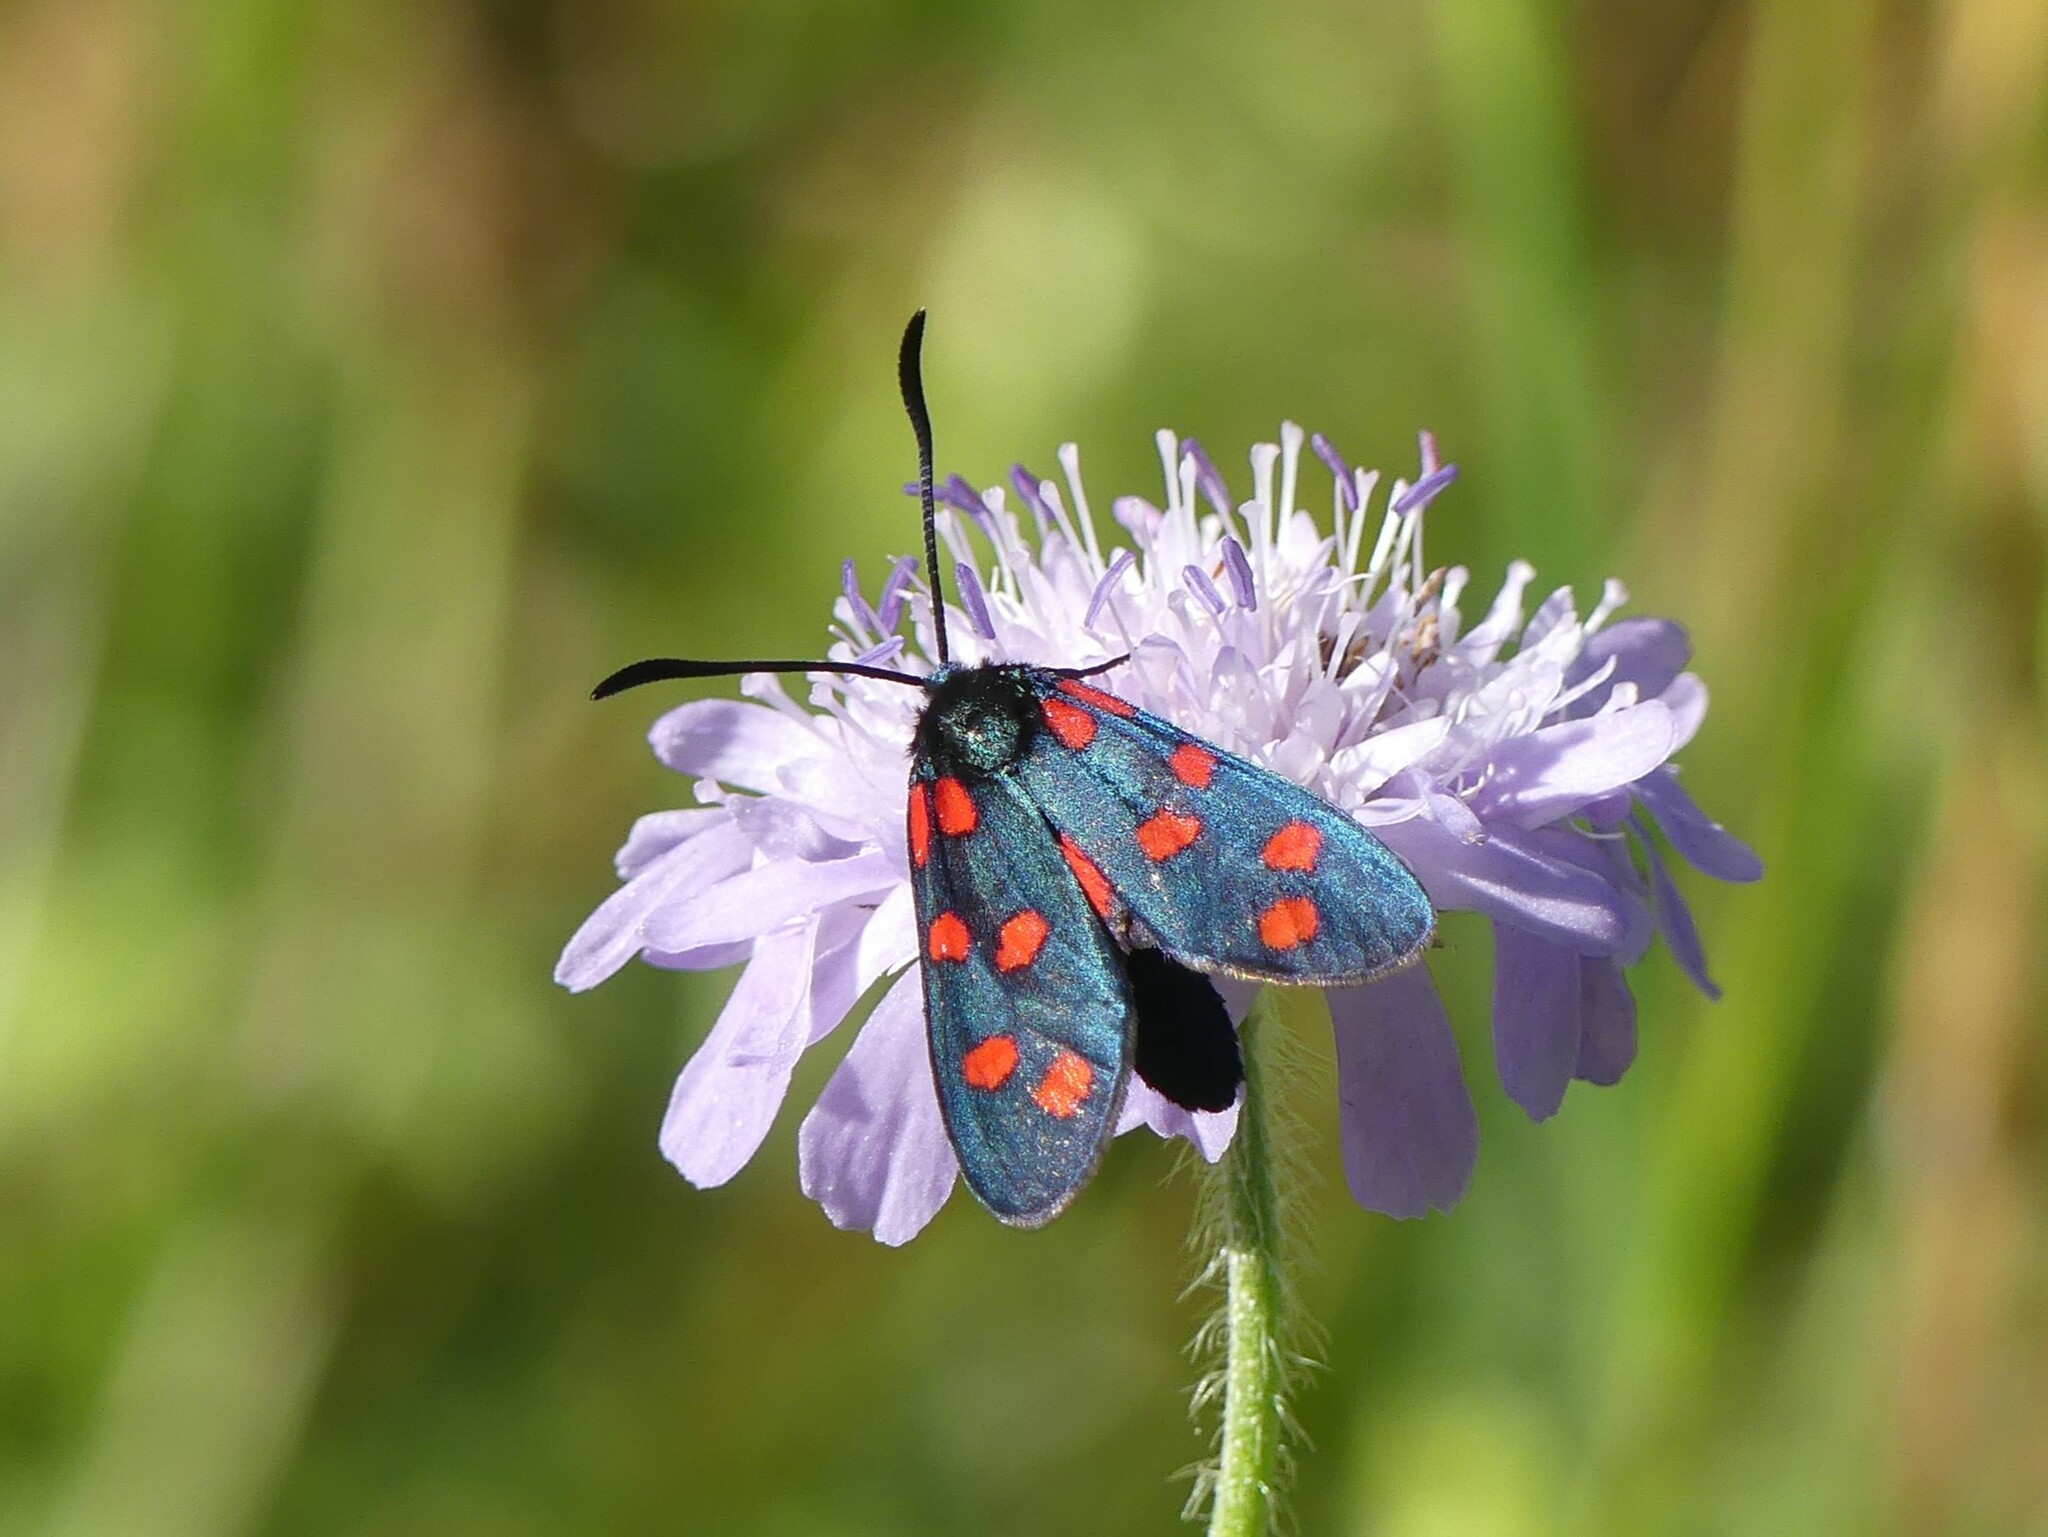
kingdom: Animalia
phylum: Arthropoda
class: Insecta
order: Lepidoptera
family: Zygaenidae
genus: Zygaena
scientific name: Zygaena transalpina
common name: Southern six spot burnet
